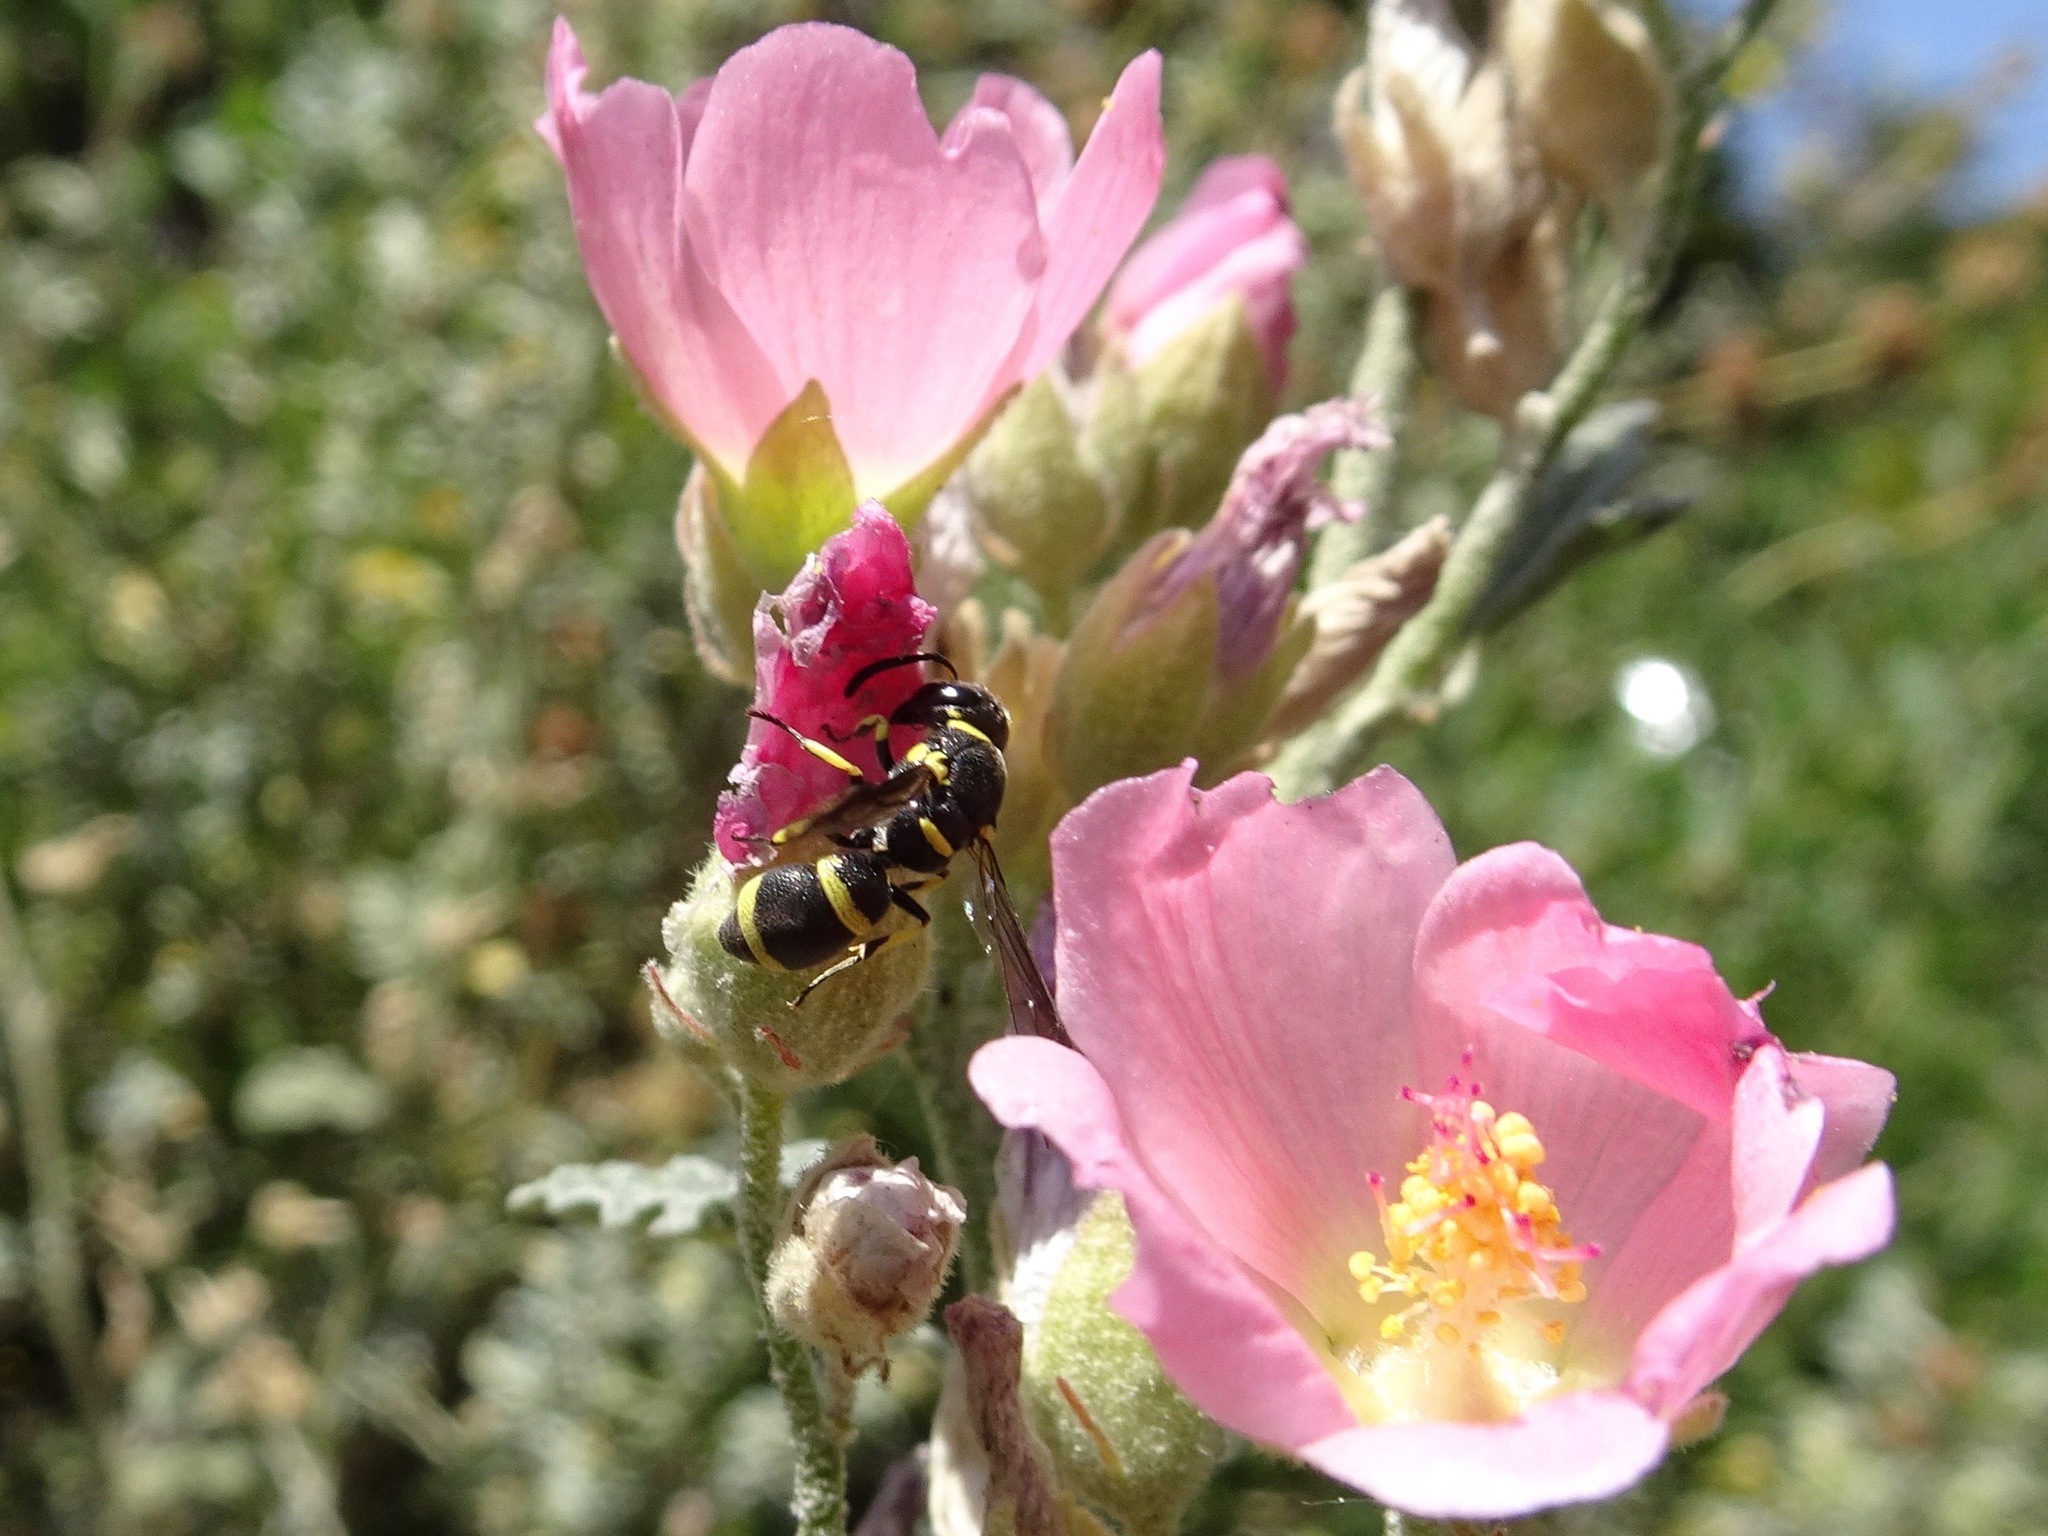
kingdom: Animalia
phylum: Arthropoda
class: Insecta
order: Hymenoptera
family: Eumenidae
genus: Parancistrocerus
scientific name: Parancistrocerus declivatus
